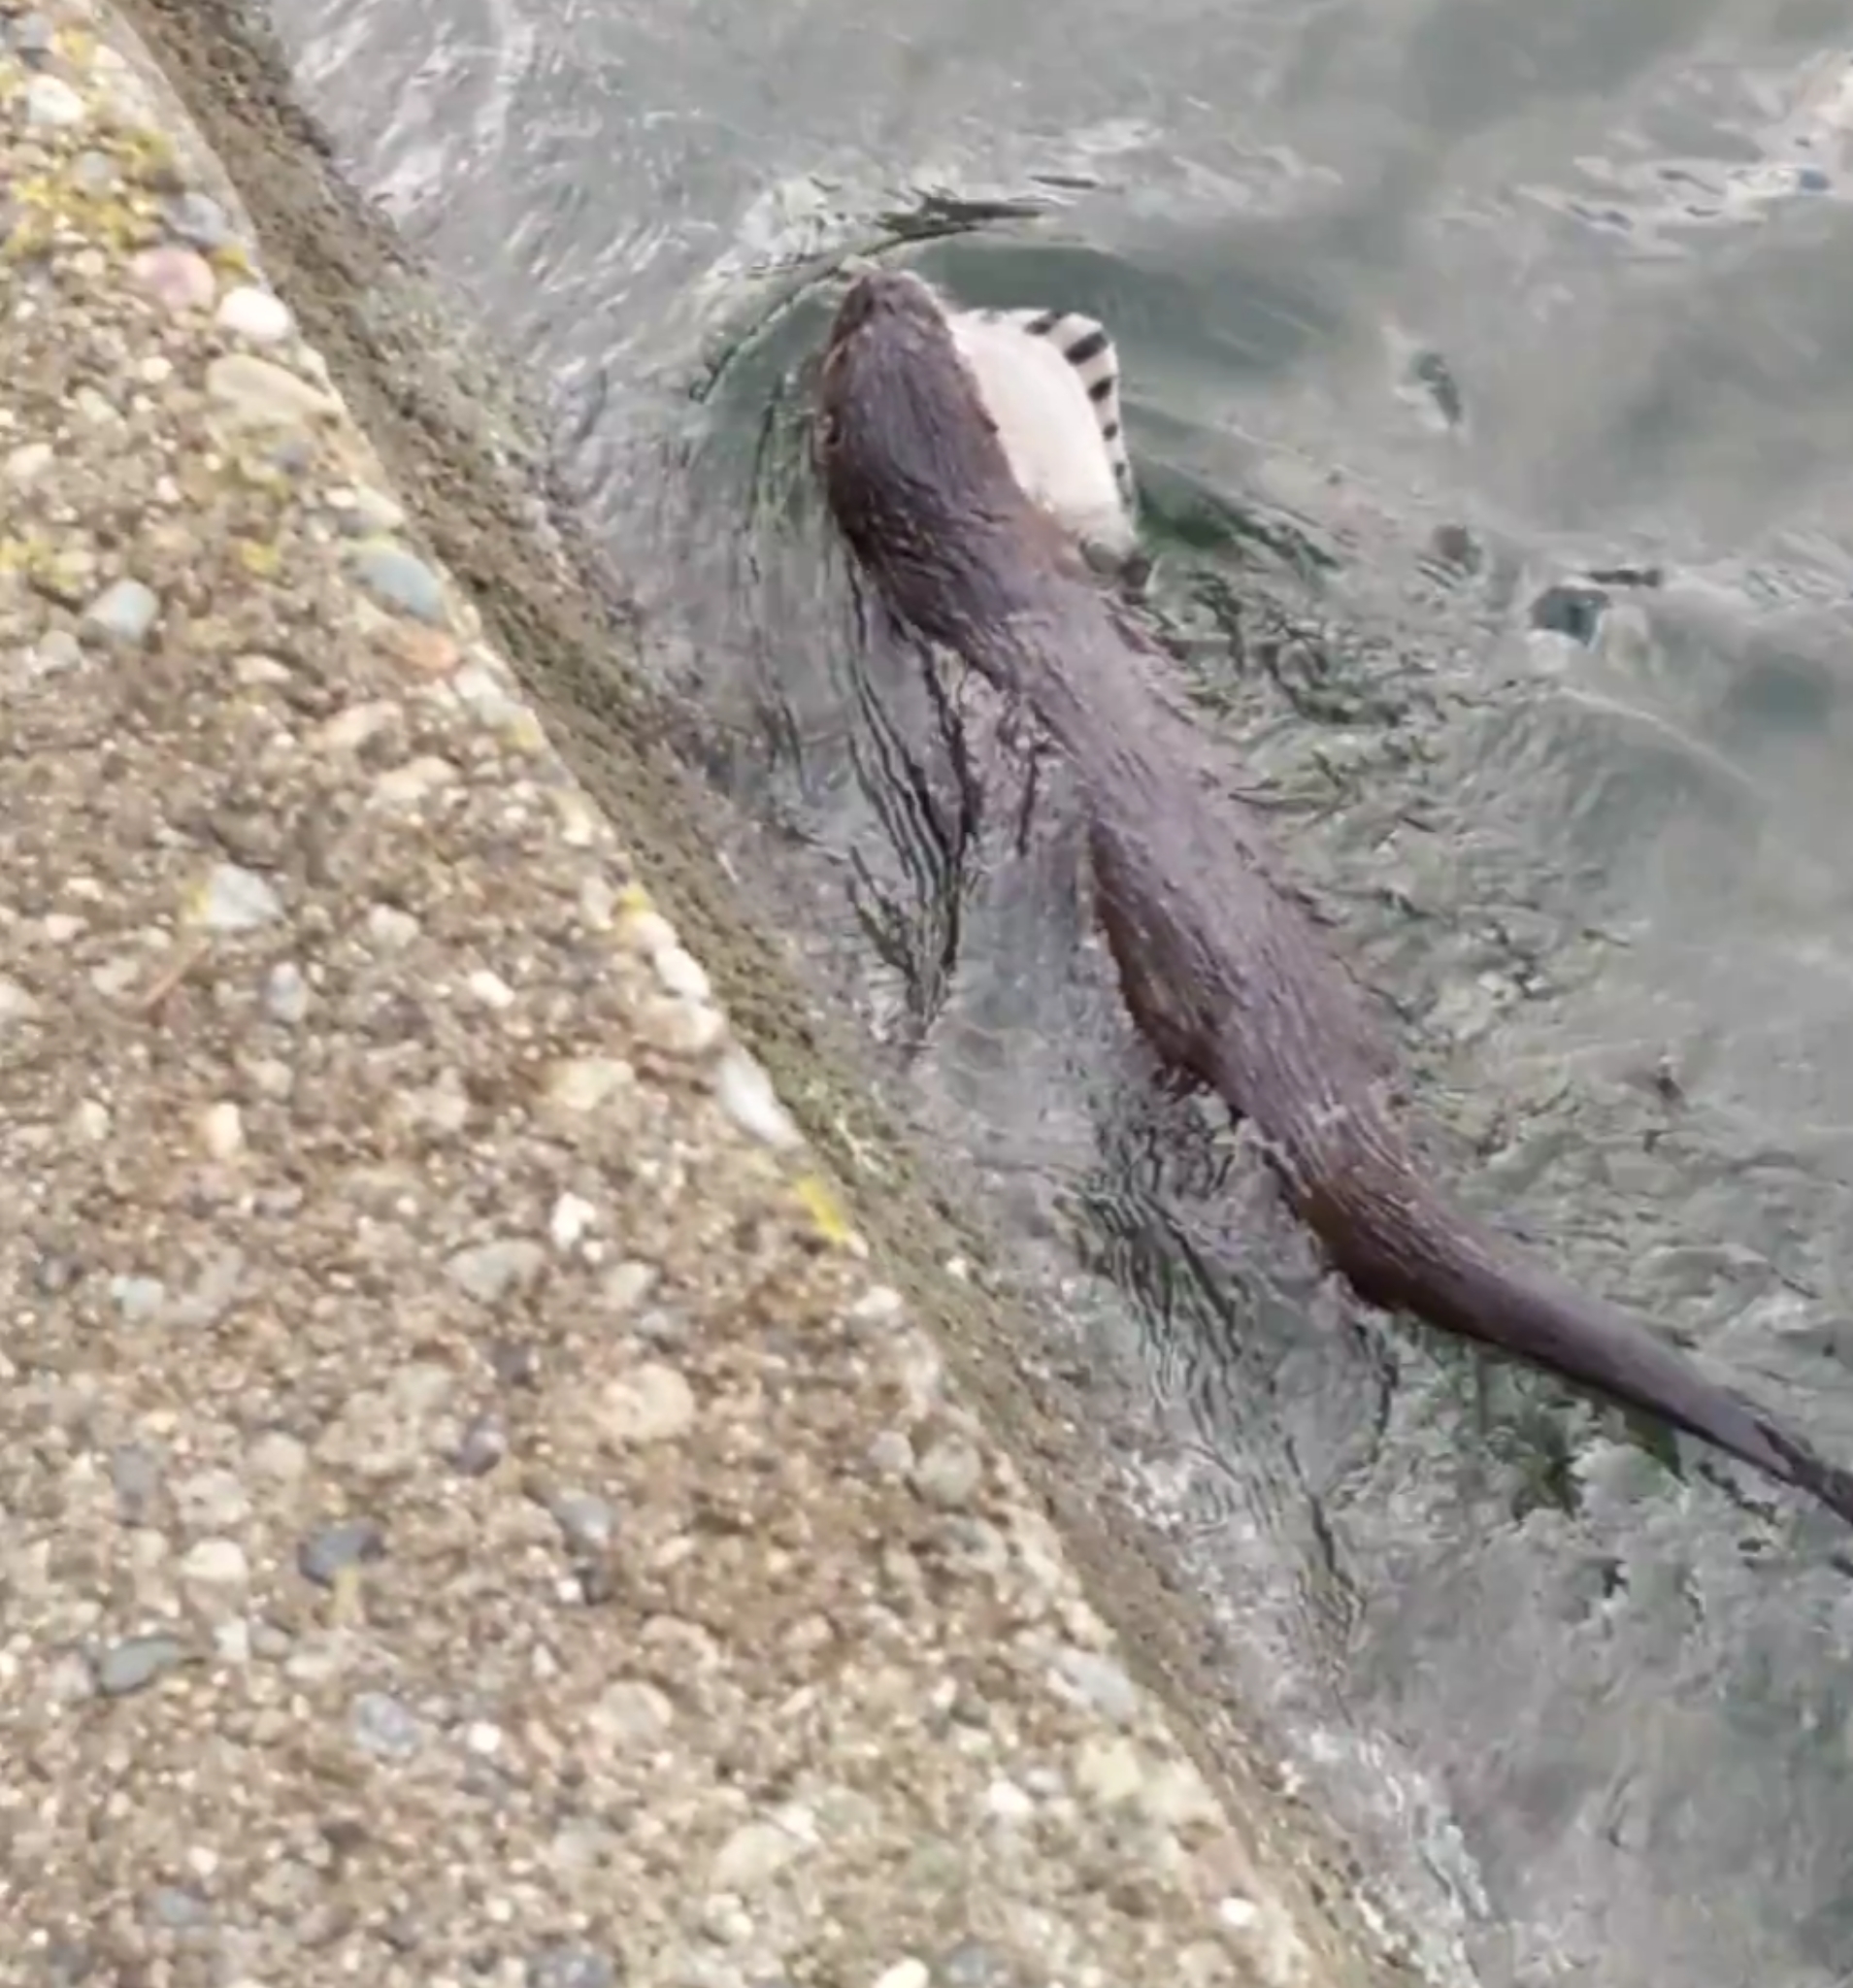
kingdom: Animalia
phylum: Chordata
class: Mammalia
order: Carnivora
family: Mustelidae
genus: Lontra
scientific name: Lontra canadensis
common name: North american river otter
